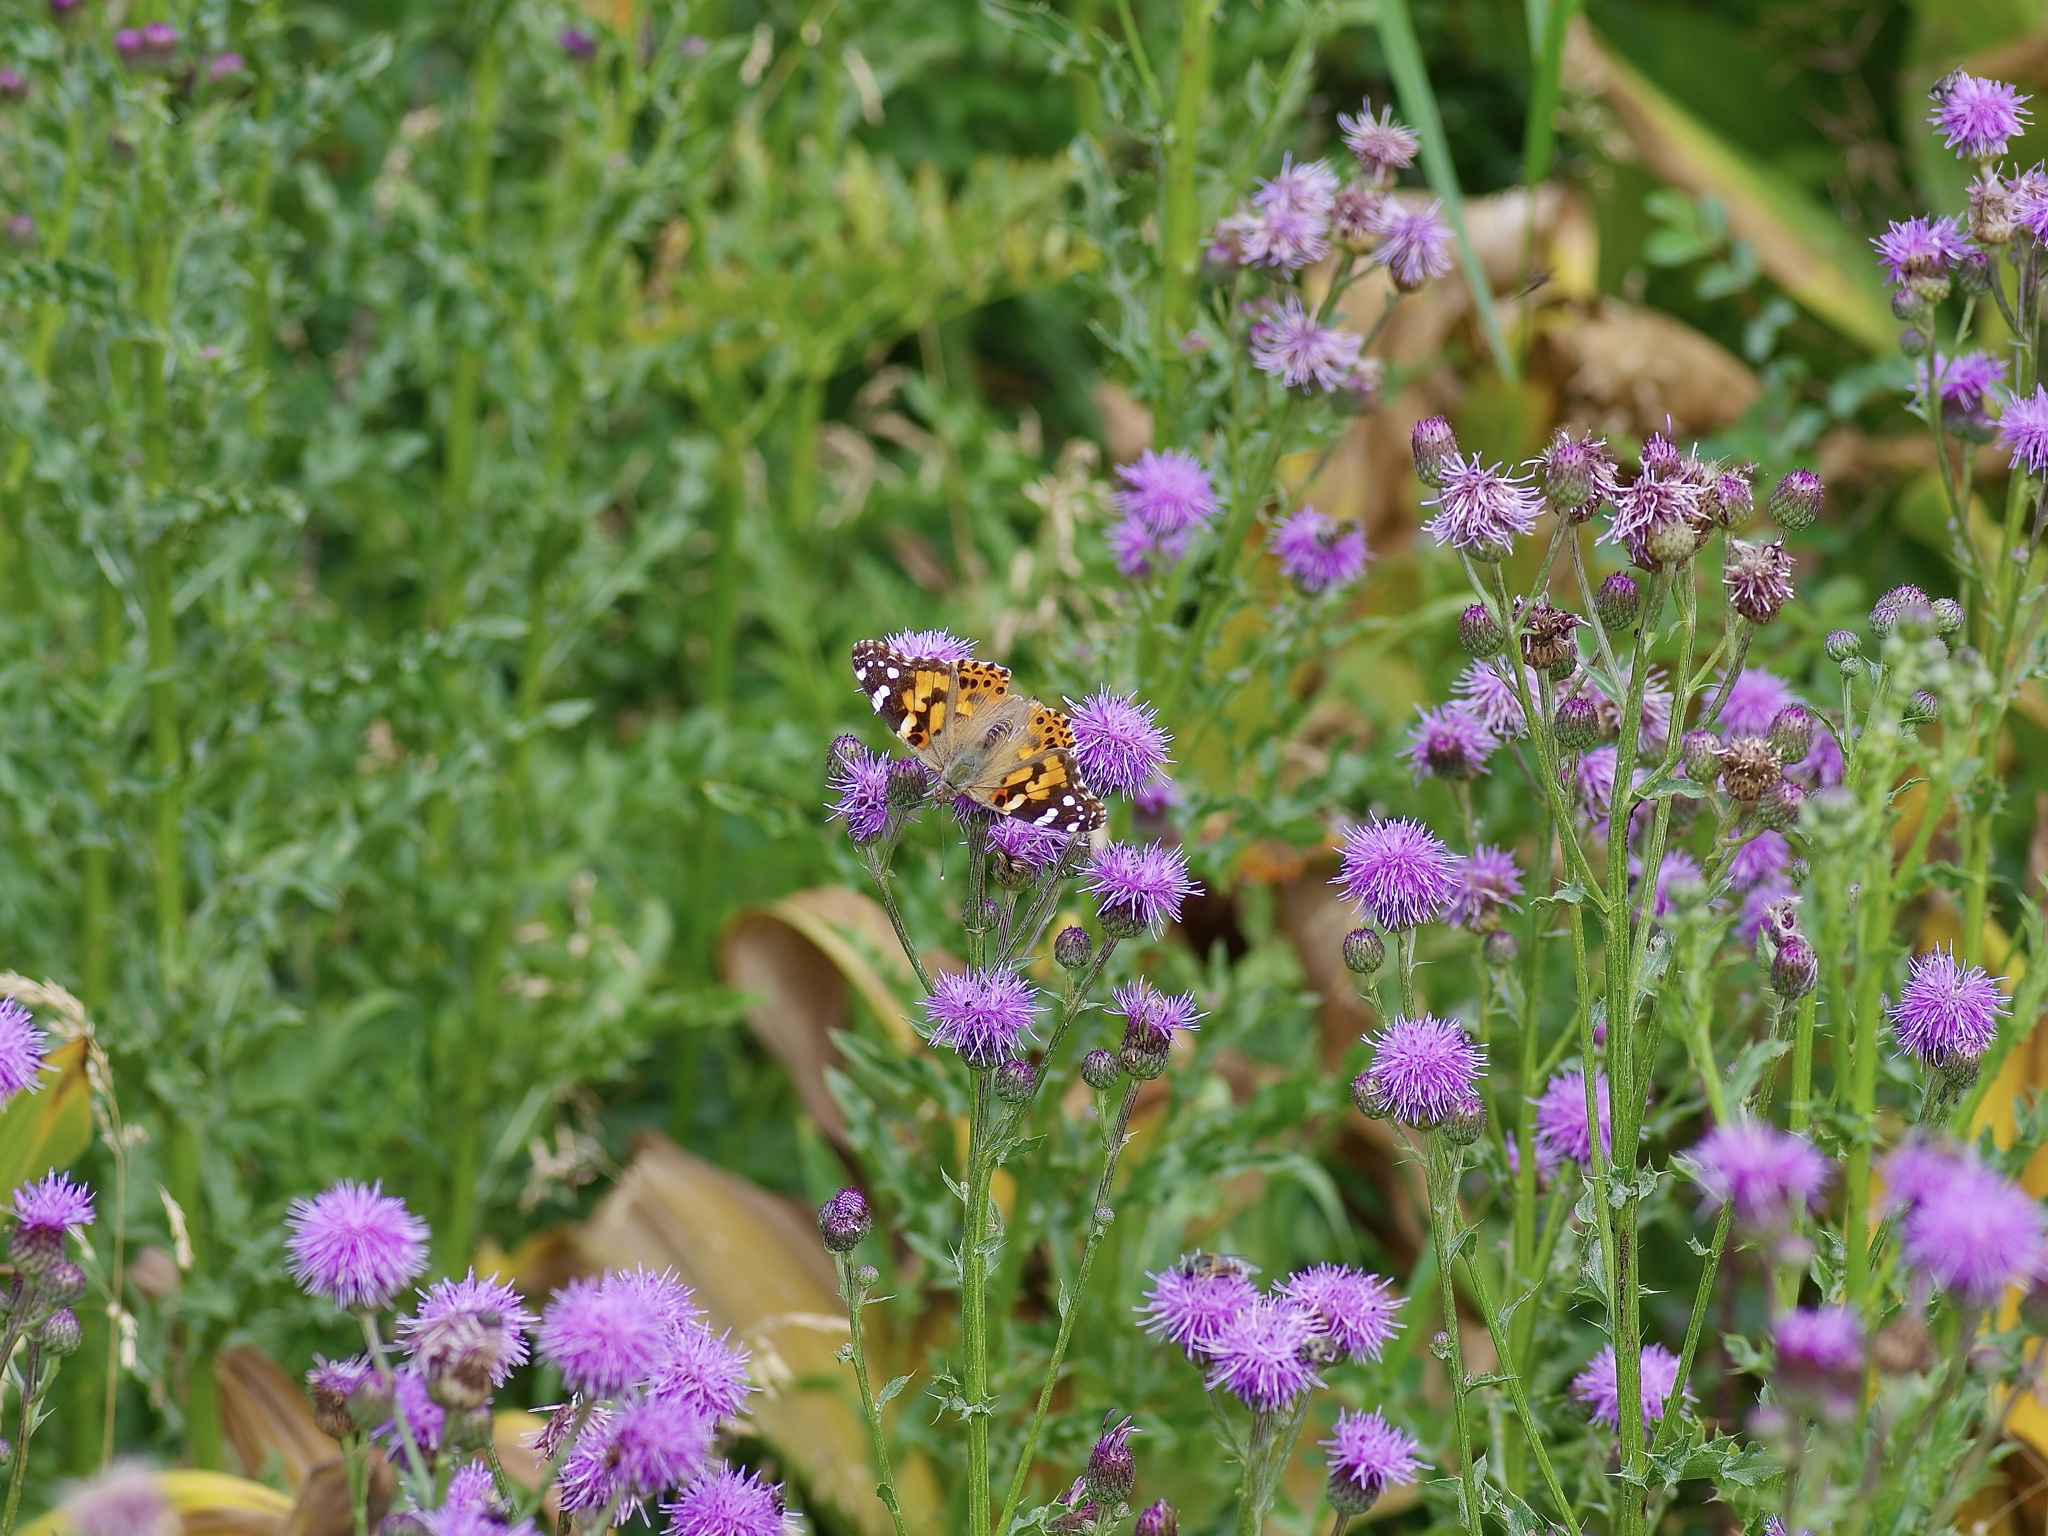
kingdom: Animalia
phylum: Arthropoda
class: Insecta
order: Lepidoptera
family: Nymphalidae
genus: Vanessa
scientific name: Vanessa cardui
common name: Painted lady
